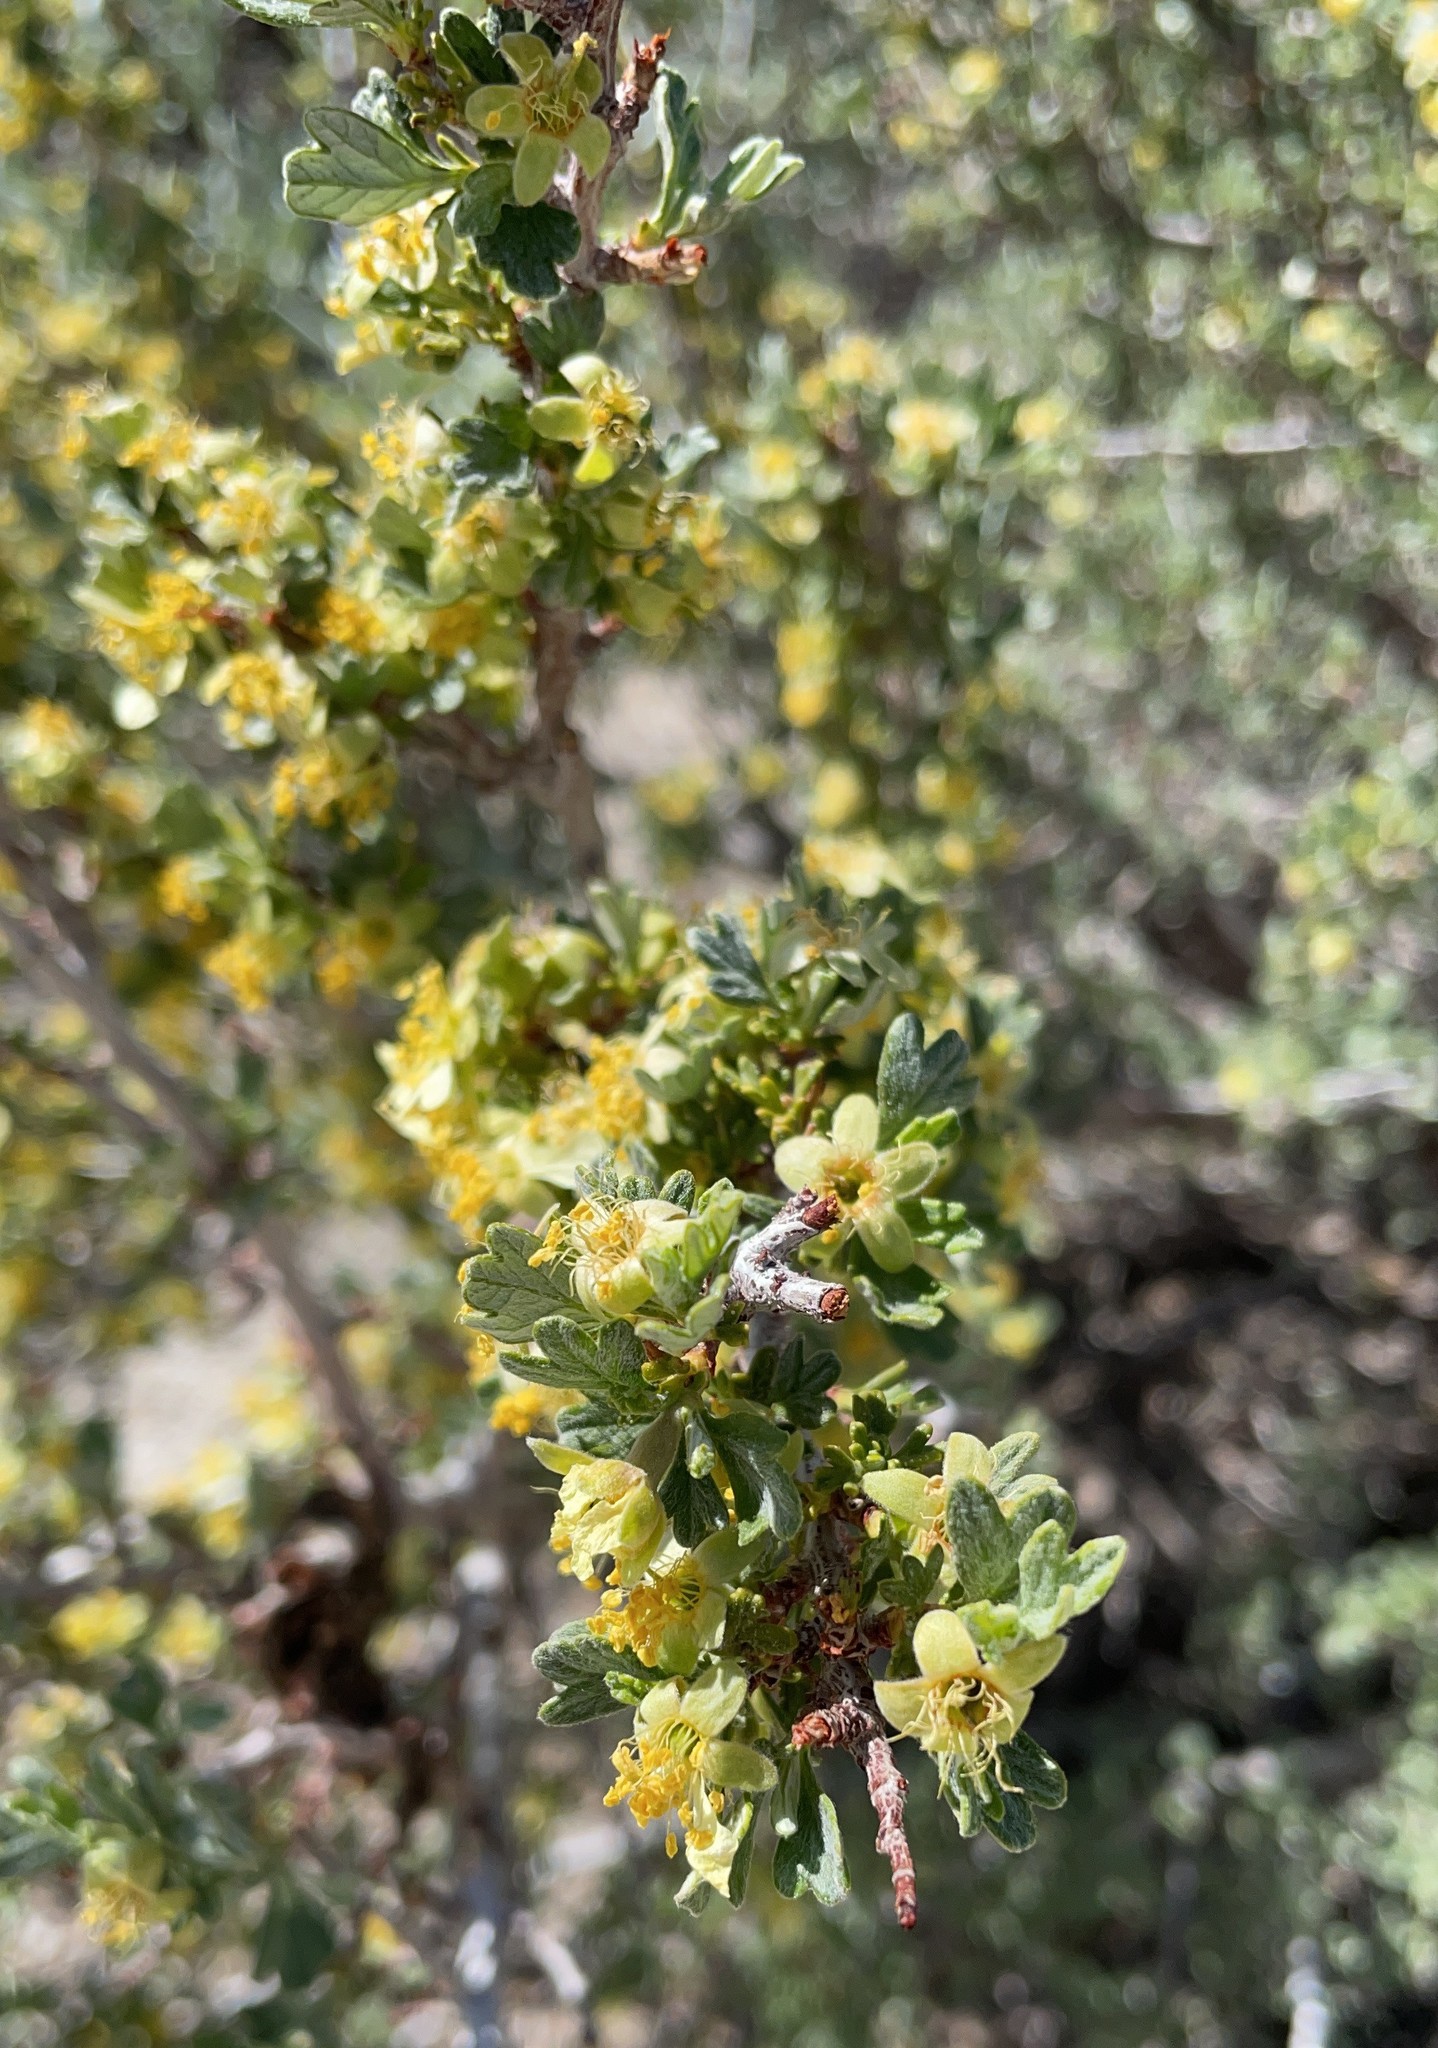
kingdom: Plantae
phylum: Tracheophyta
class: Magnoliopsida
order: Rosales
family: Rosaceae
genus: Purshia
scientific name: Purshia tridentata
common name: Antelope bitterbrush
